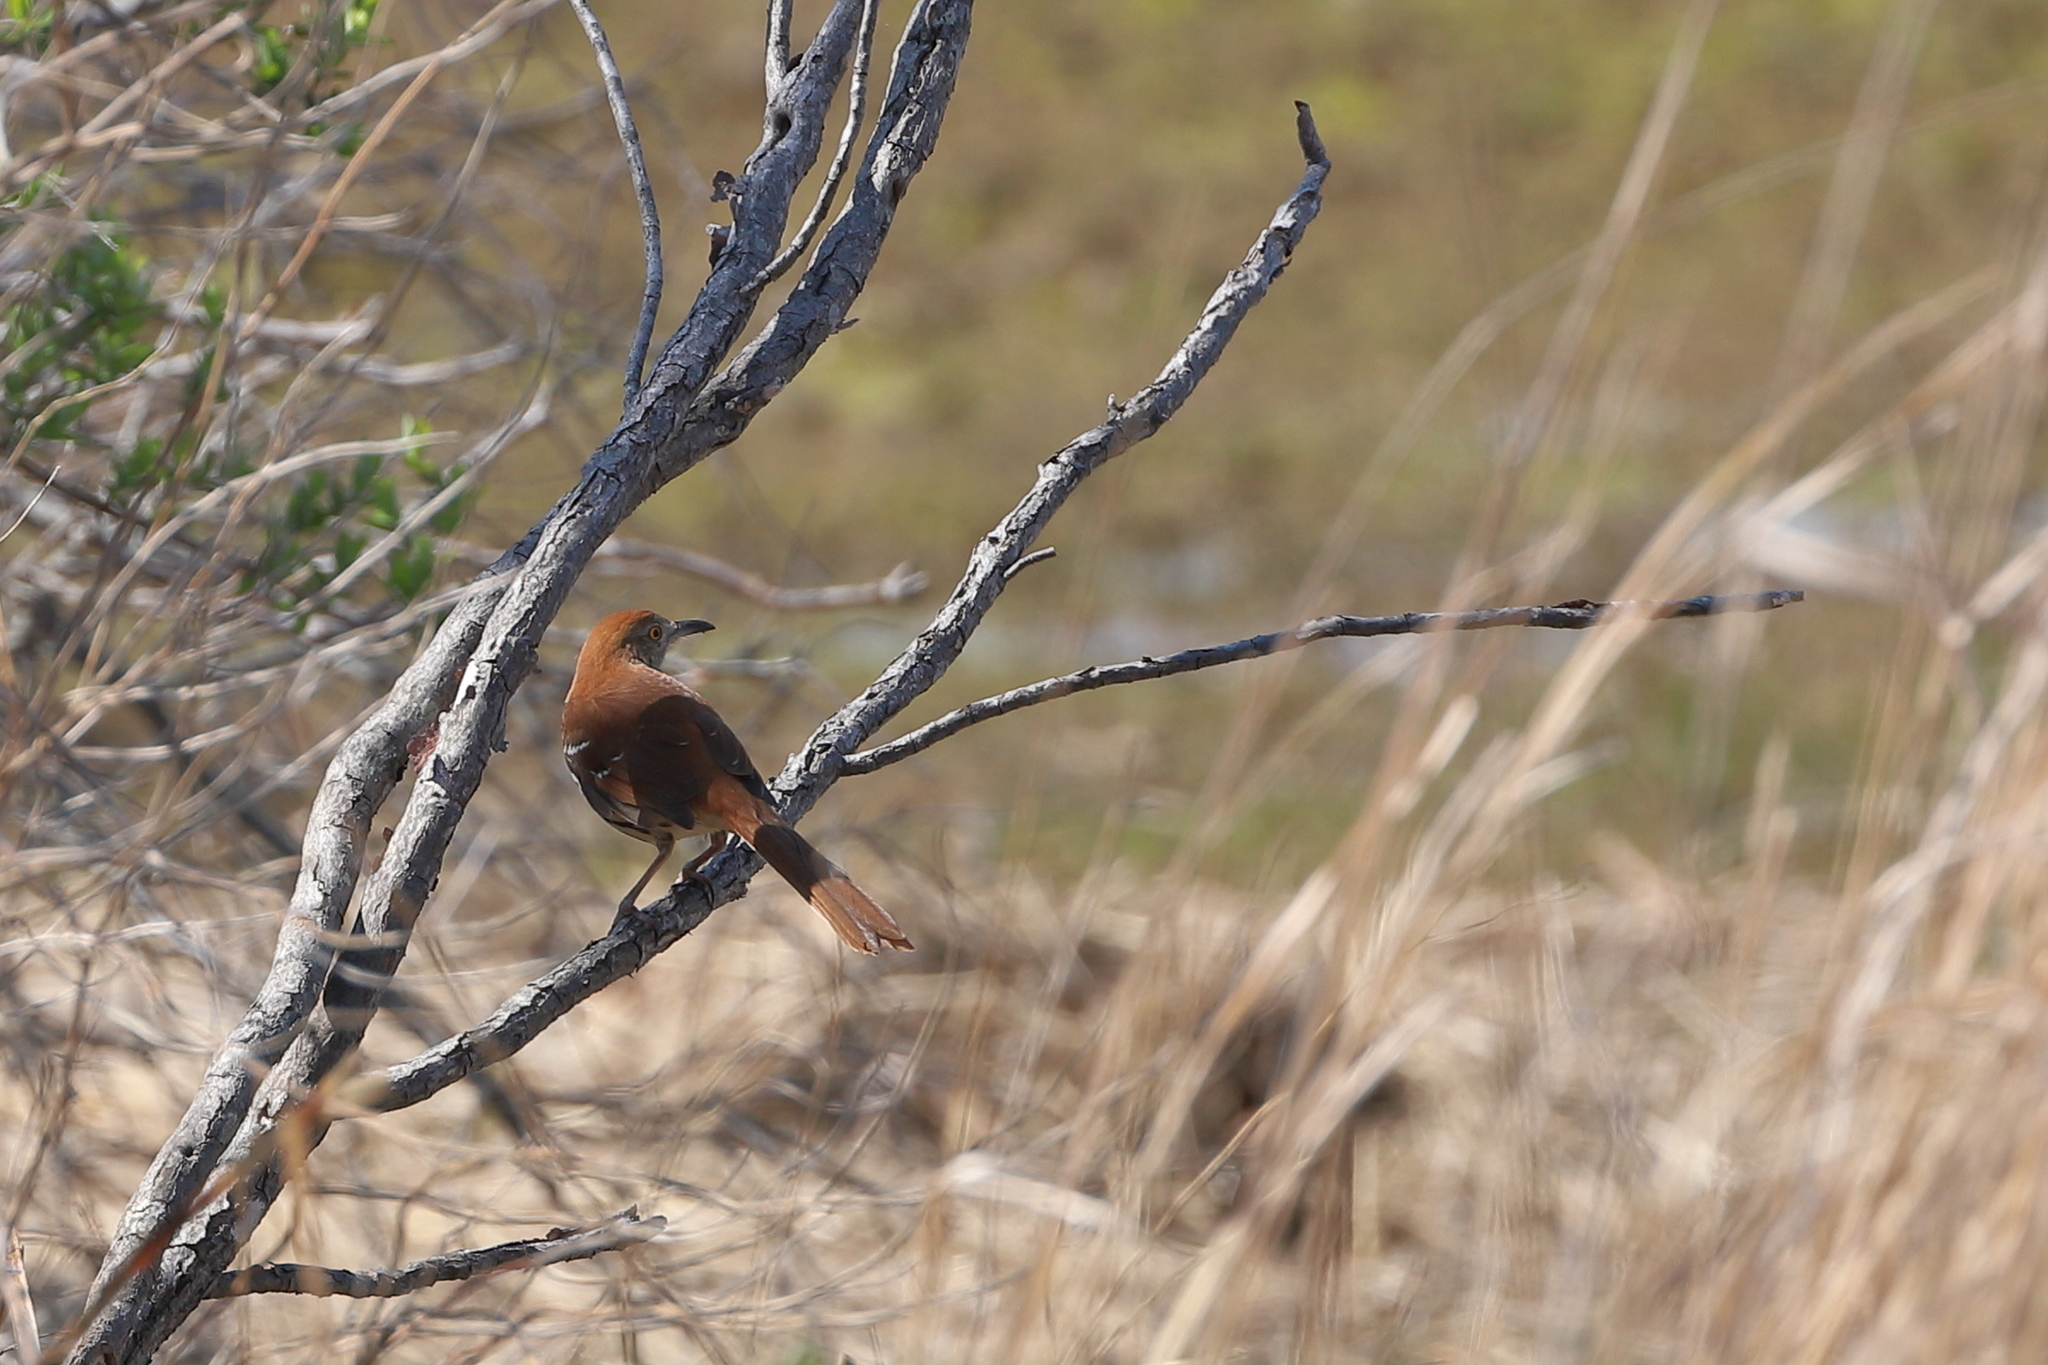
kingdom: Animalia
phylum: Chordata
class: Aves
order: Passeriformes
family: Mimidae
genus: Toxostoma
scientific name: Toxostoma rufum
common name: Brown thrasher
